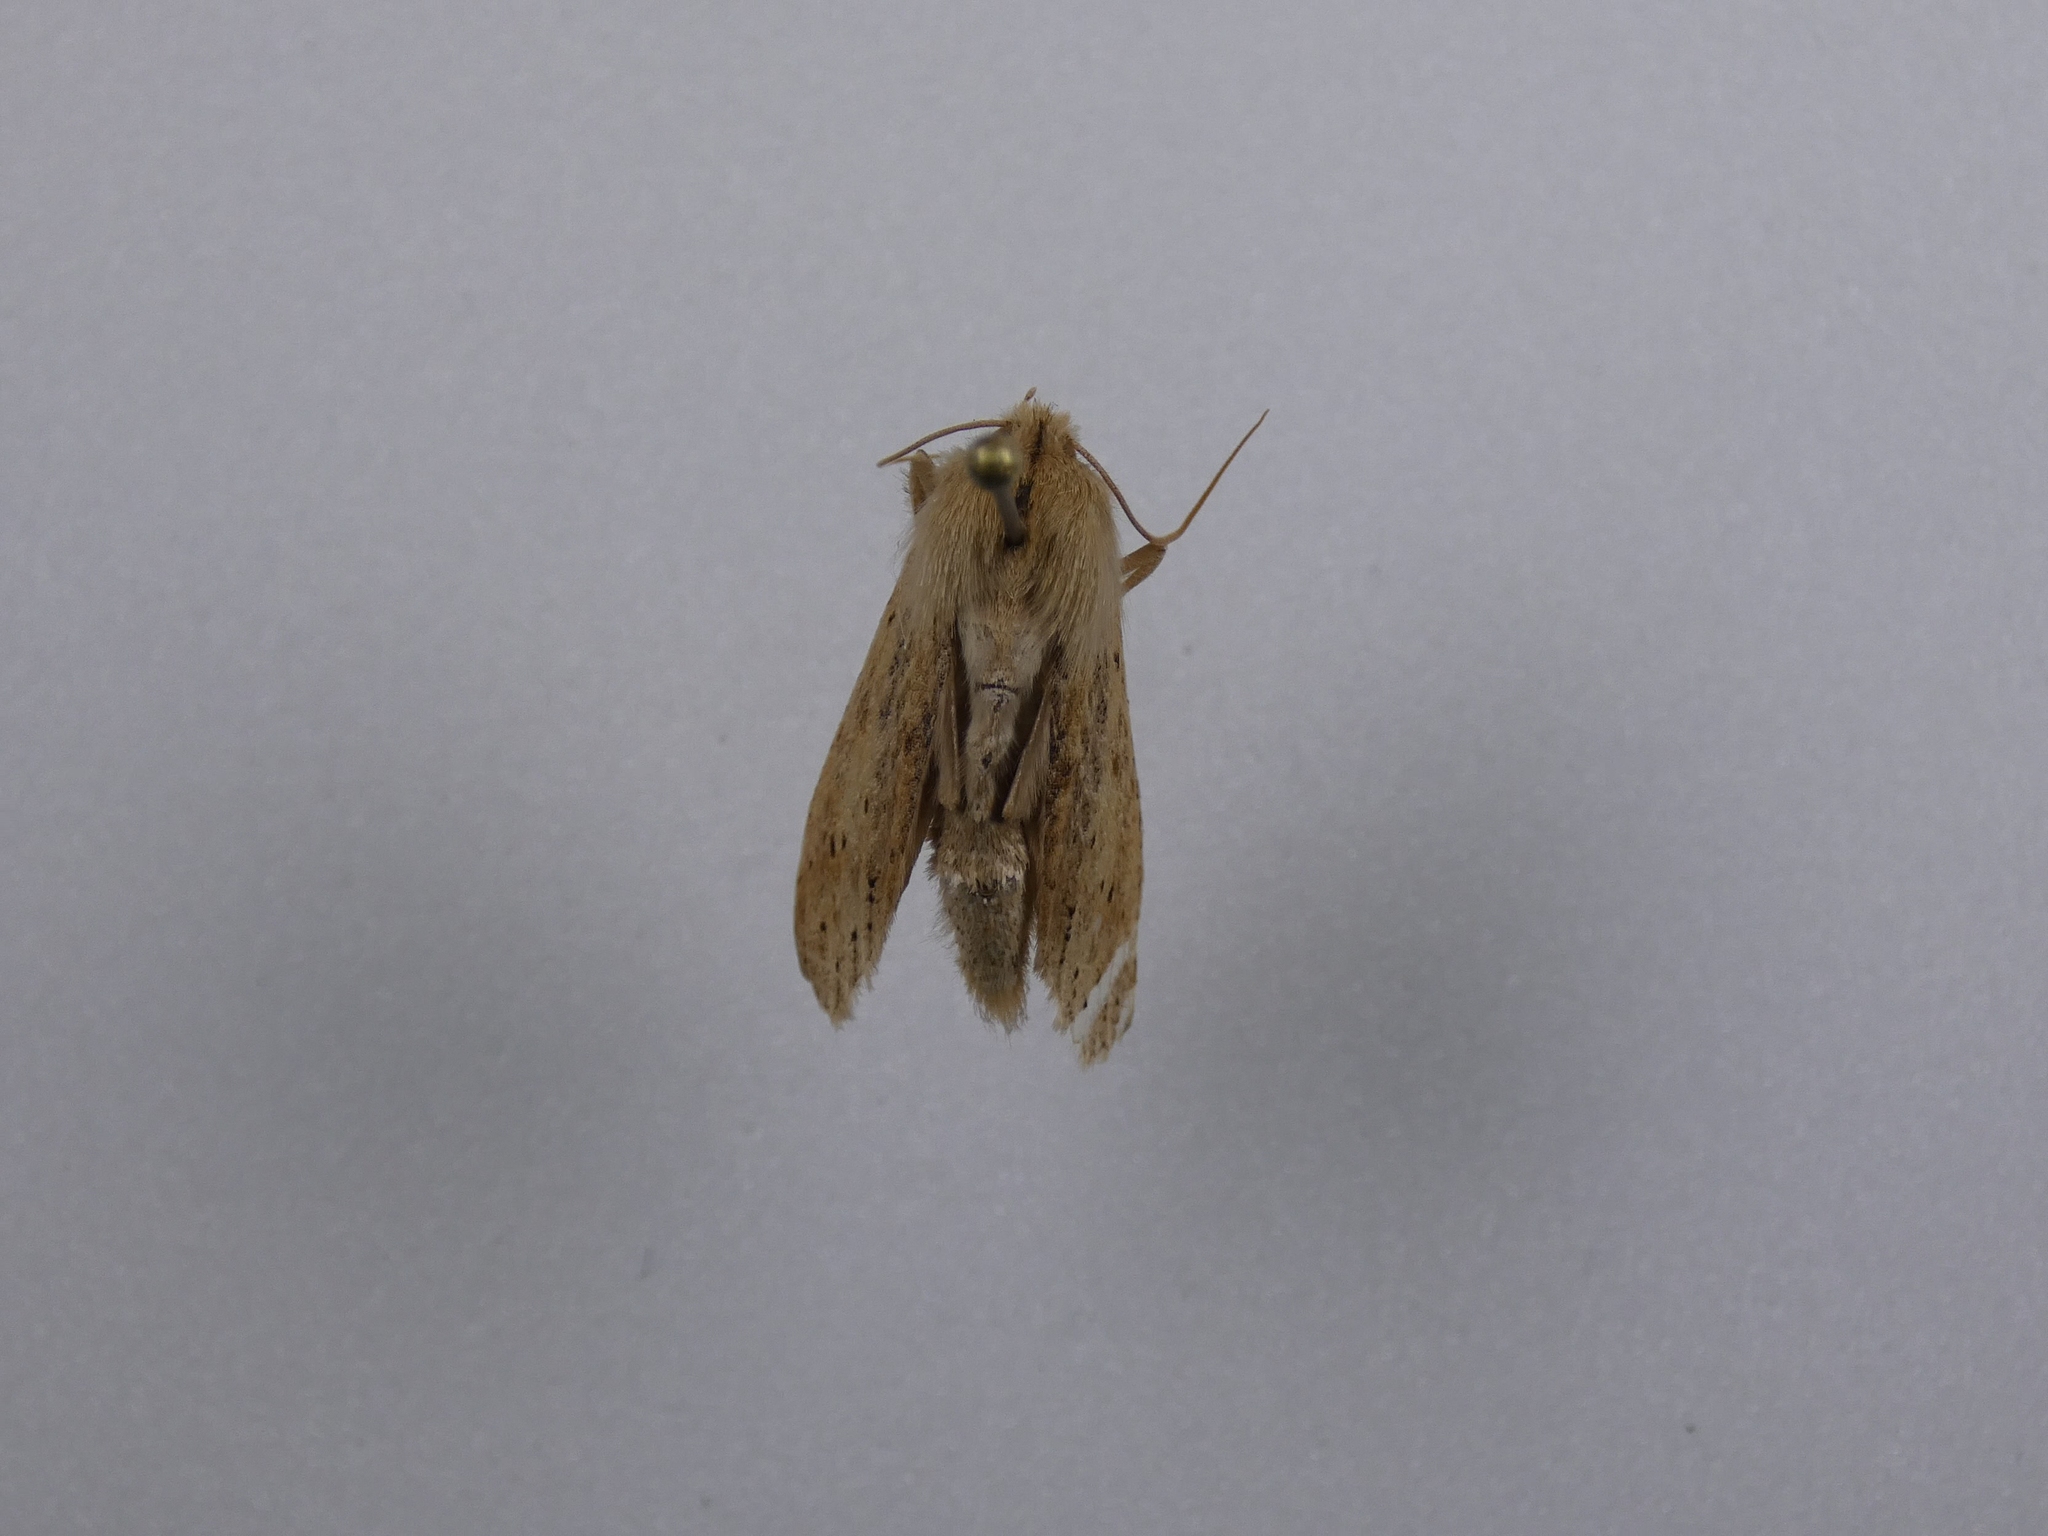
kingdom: Animalia
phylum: Arthropoda
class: Insecta
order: Lepidoptera
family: Geometridae
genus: Declana
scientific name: Declana leptomera
